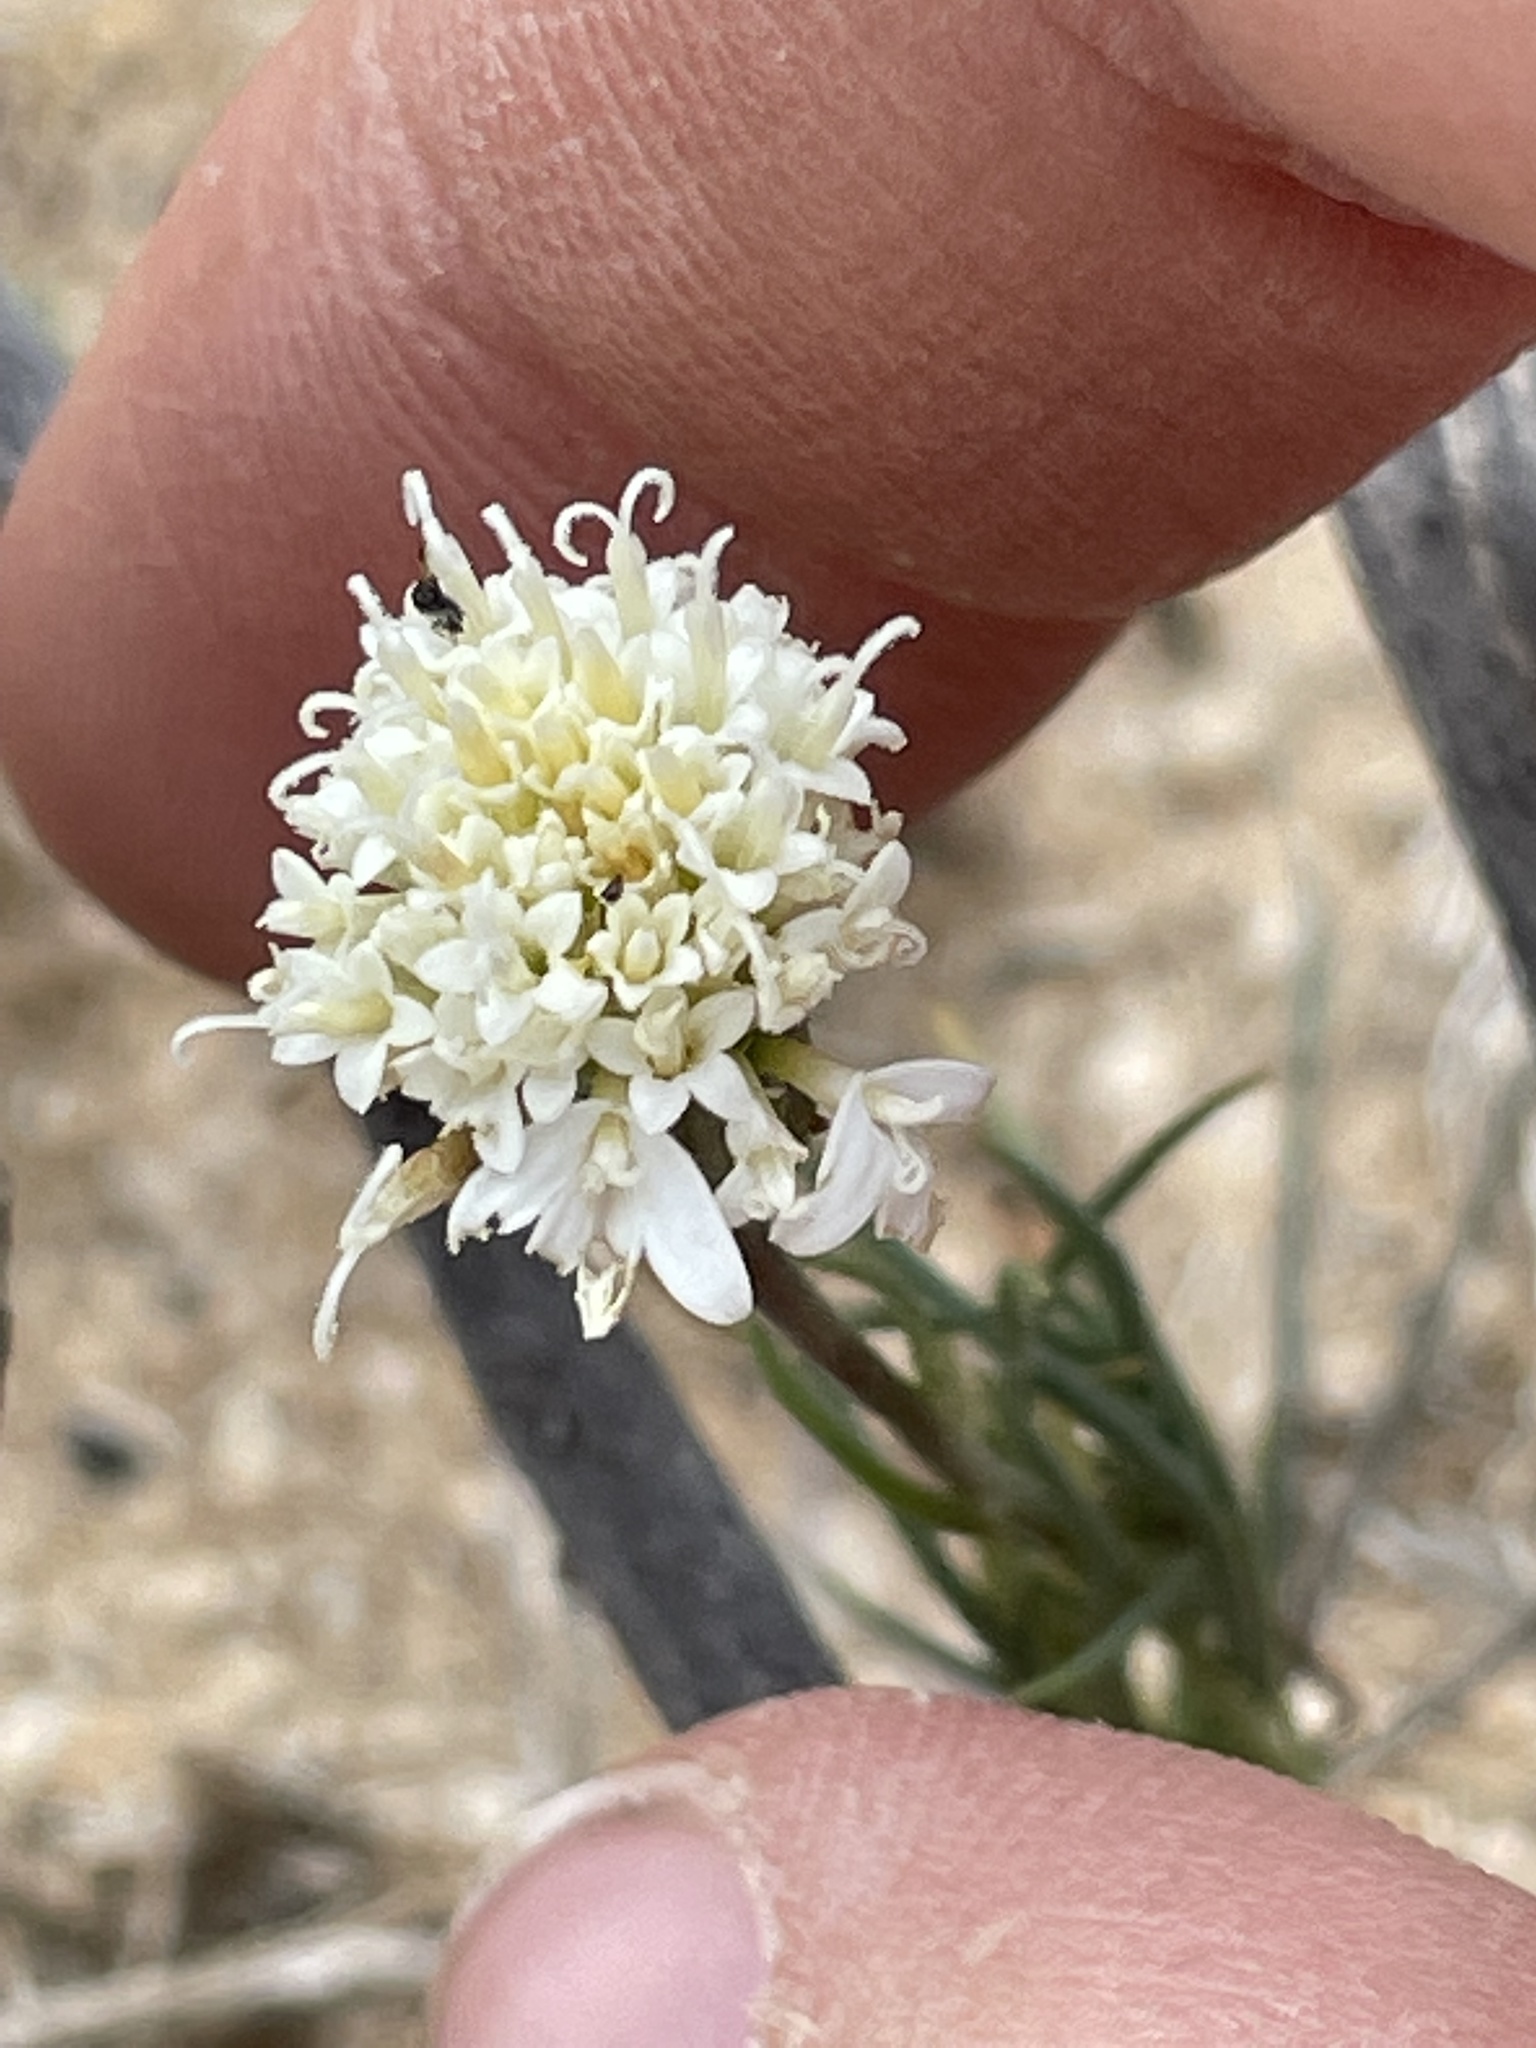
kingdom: Plantae
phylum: Tracheophyta
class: Magnoliopsida
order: Asterales
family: Asteraceae
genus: Chaenactis
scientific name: Chaenactis fremontii
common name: Fremont pincushion
